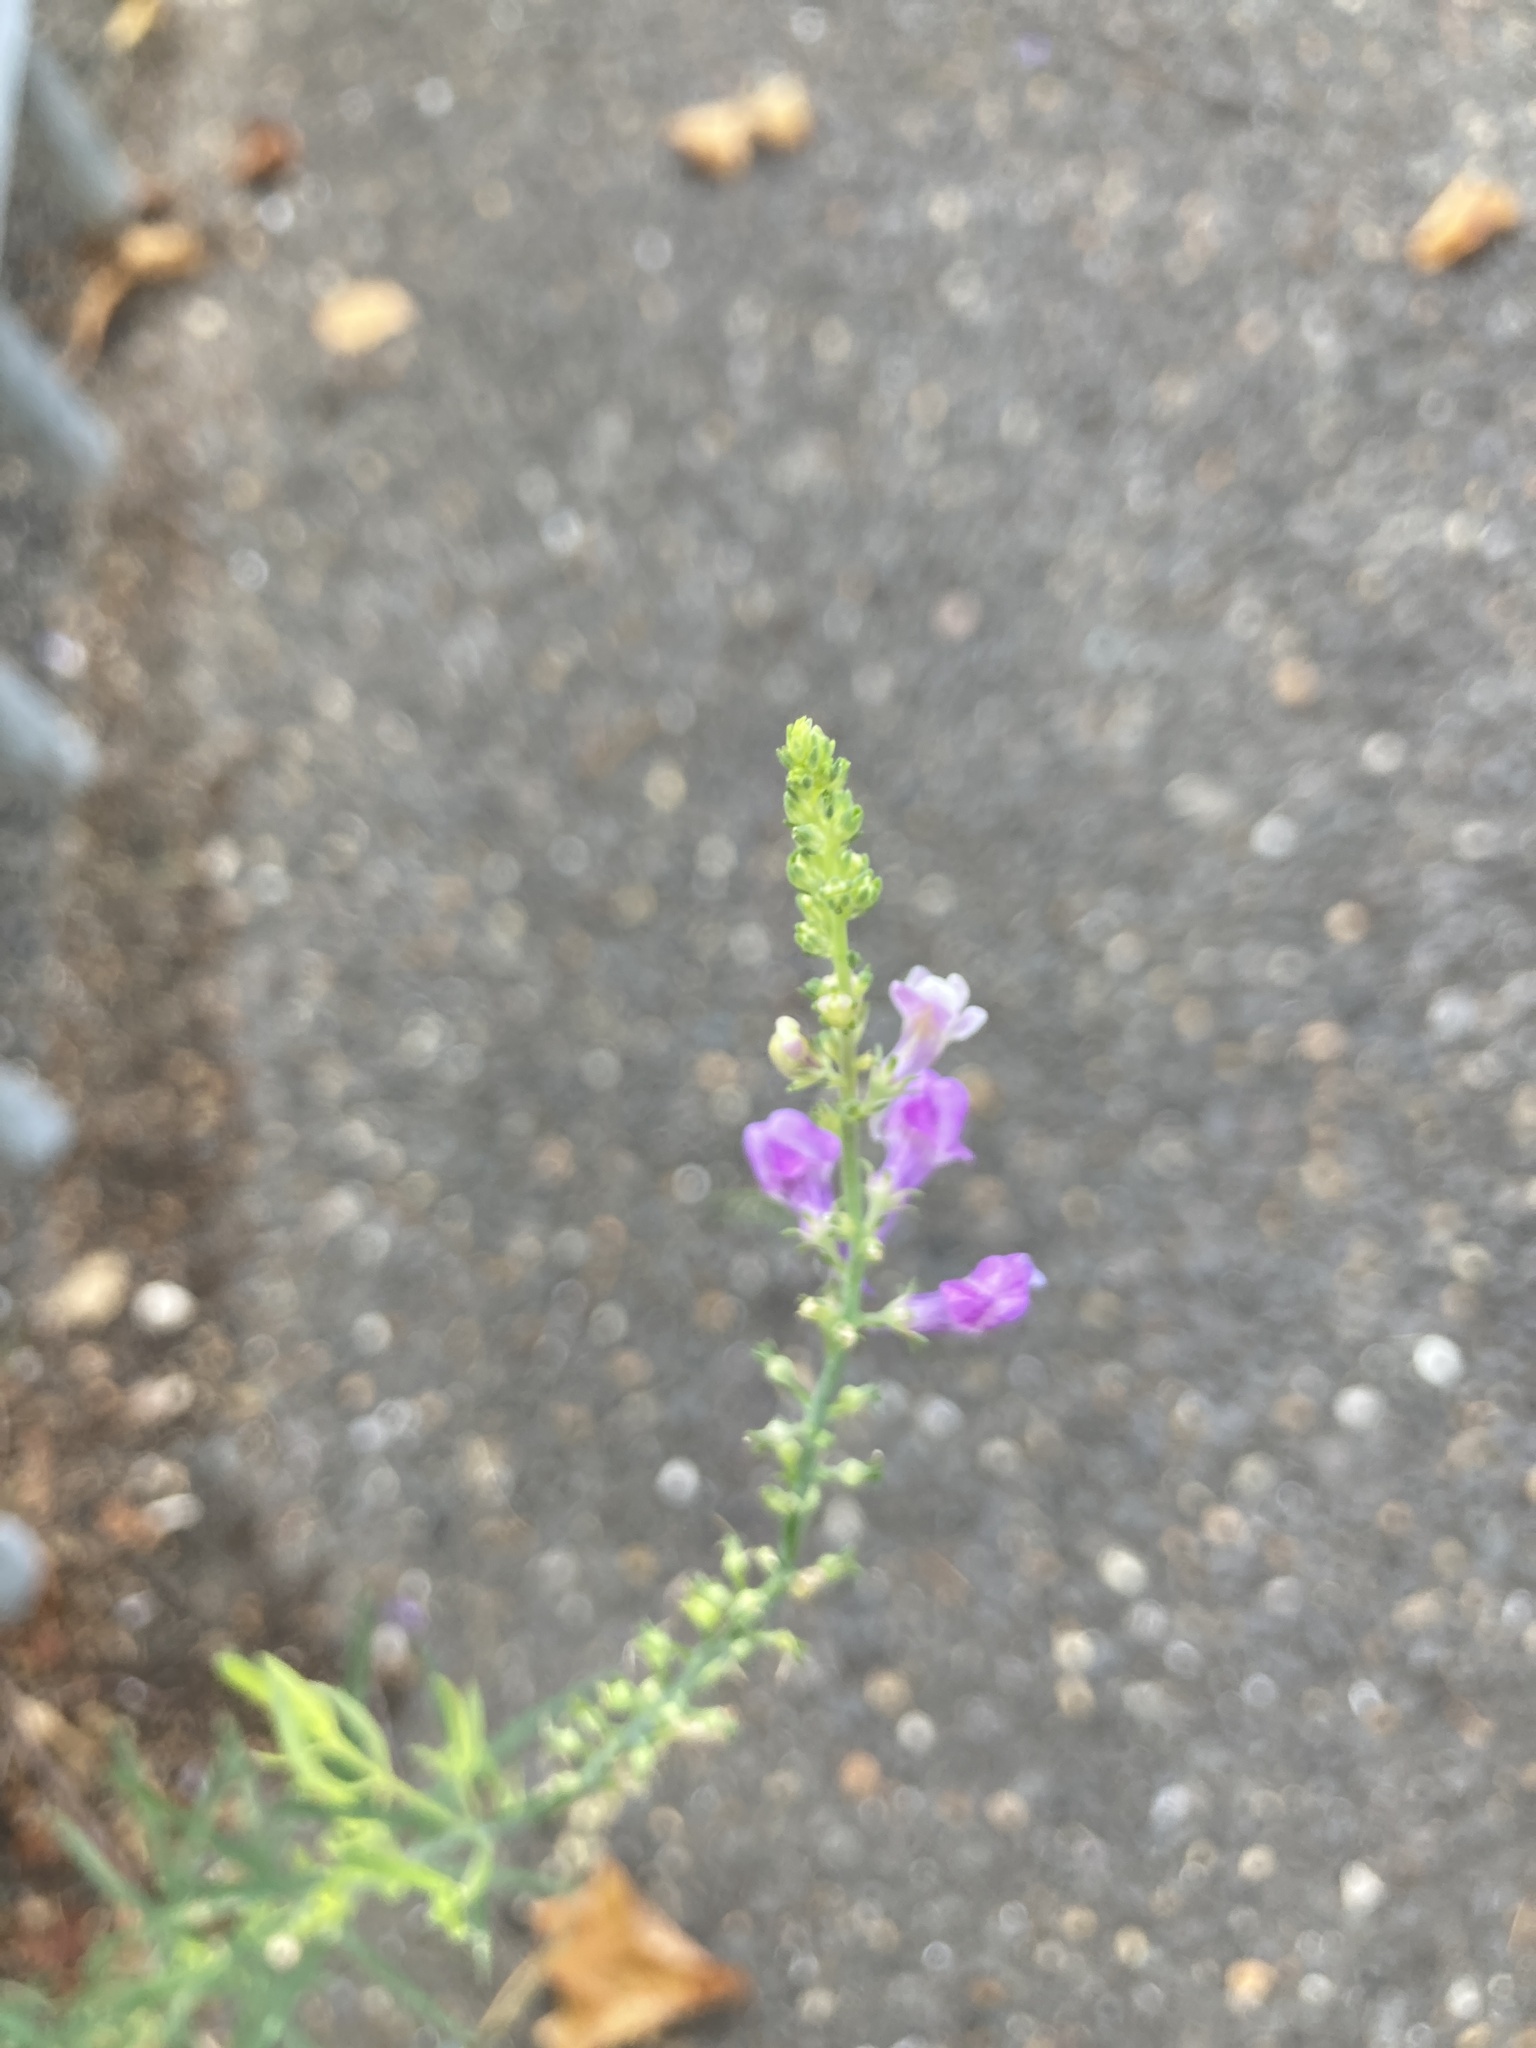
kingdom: Plantae
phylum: Tracheophyta
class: Magnoliopsida
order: Lamiales
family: Plantaginaceae
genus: Linaria
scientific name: Linaria purpurea
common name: Purple toadflax
